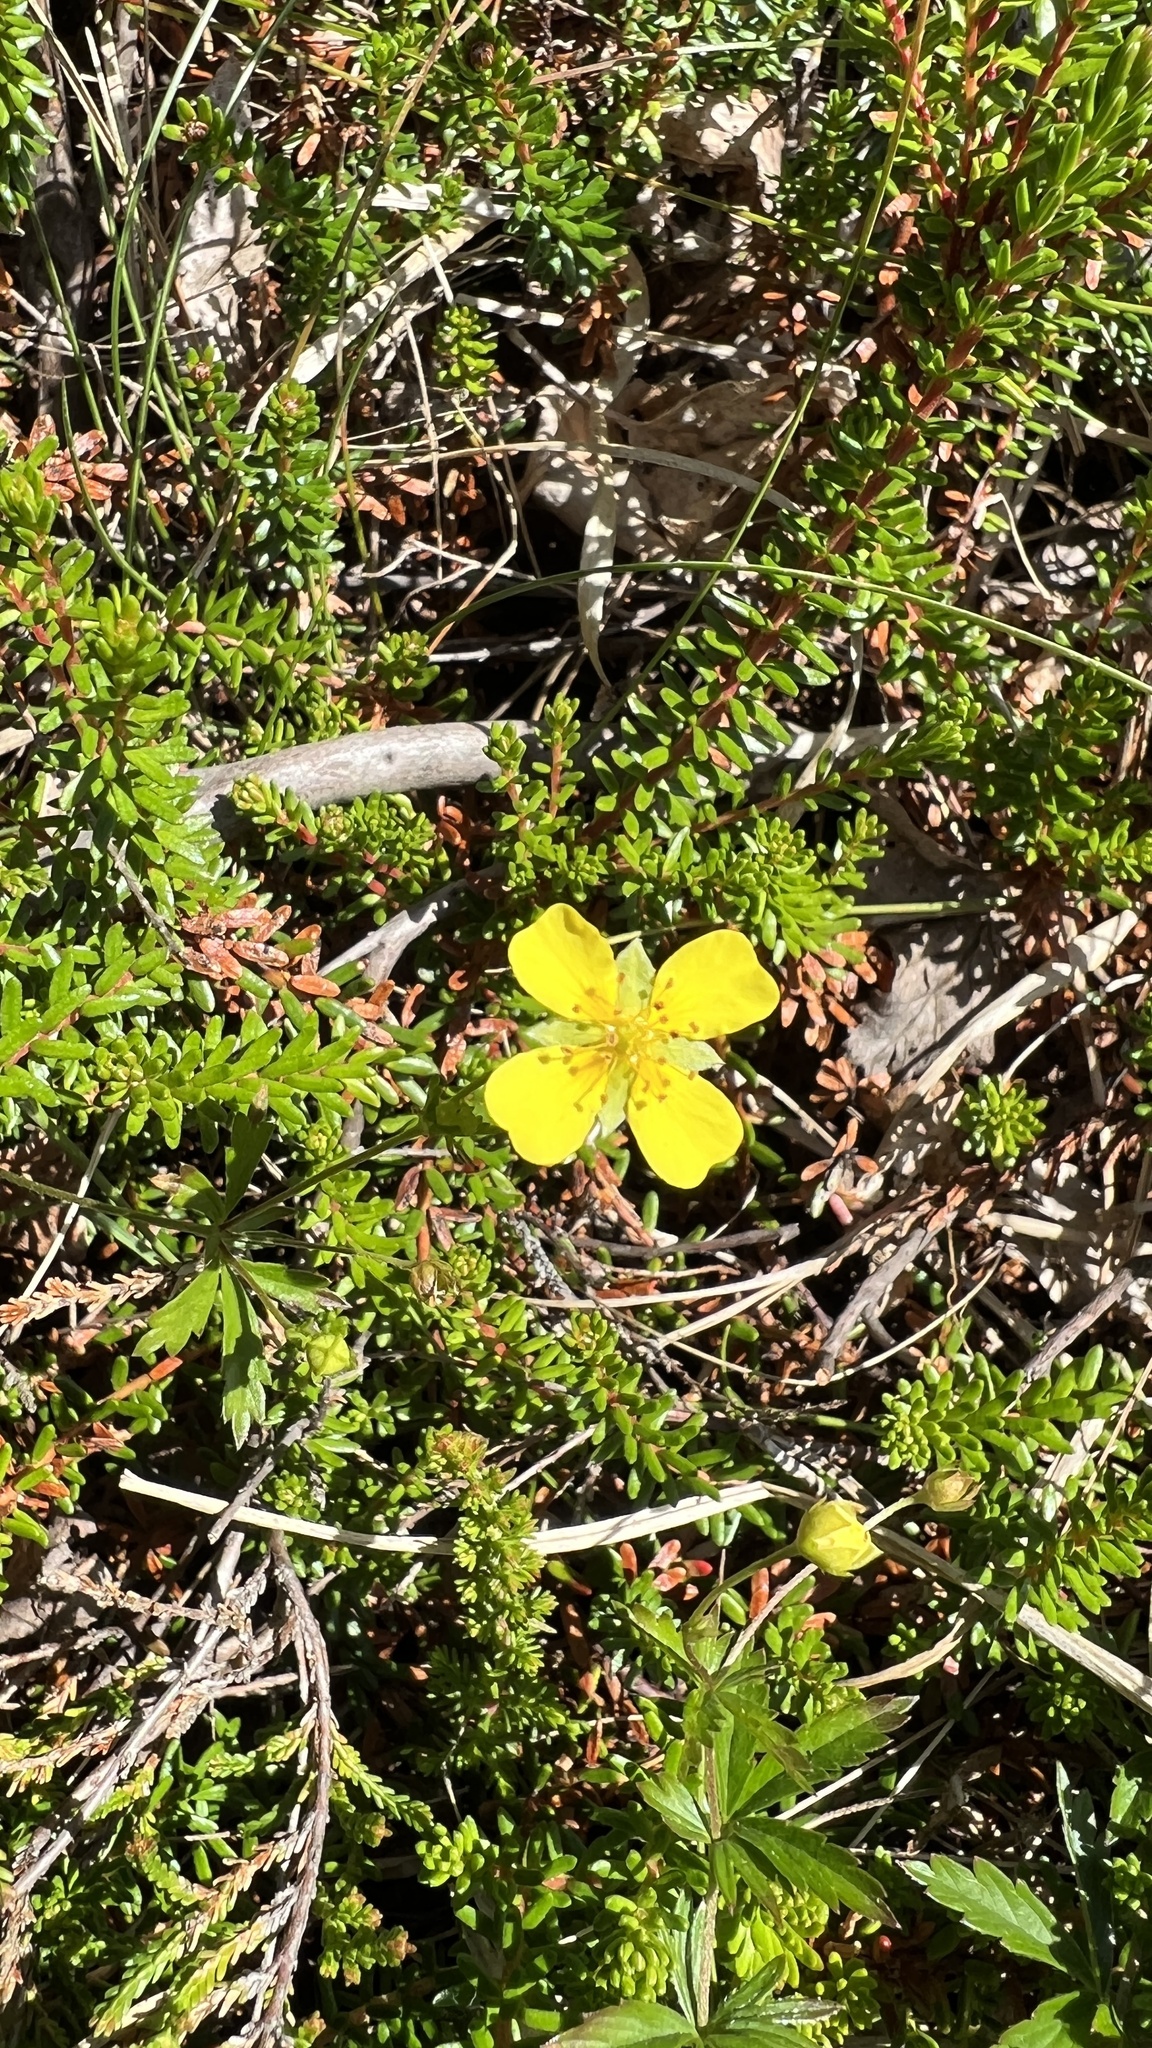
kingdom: Plantae
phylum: Tracheophyta
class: Magnoliopsida
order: Rosales
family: Rosaceae
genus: Potentilla
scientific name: Potentilla erecta
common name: Tormentil
